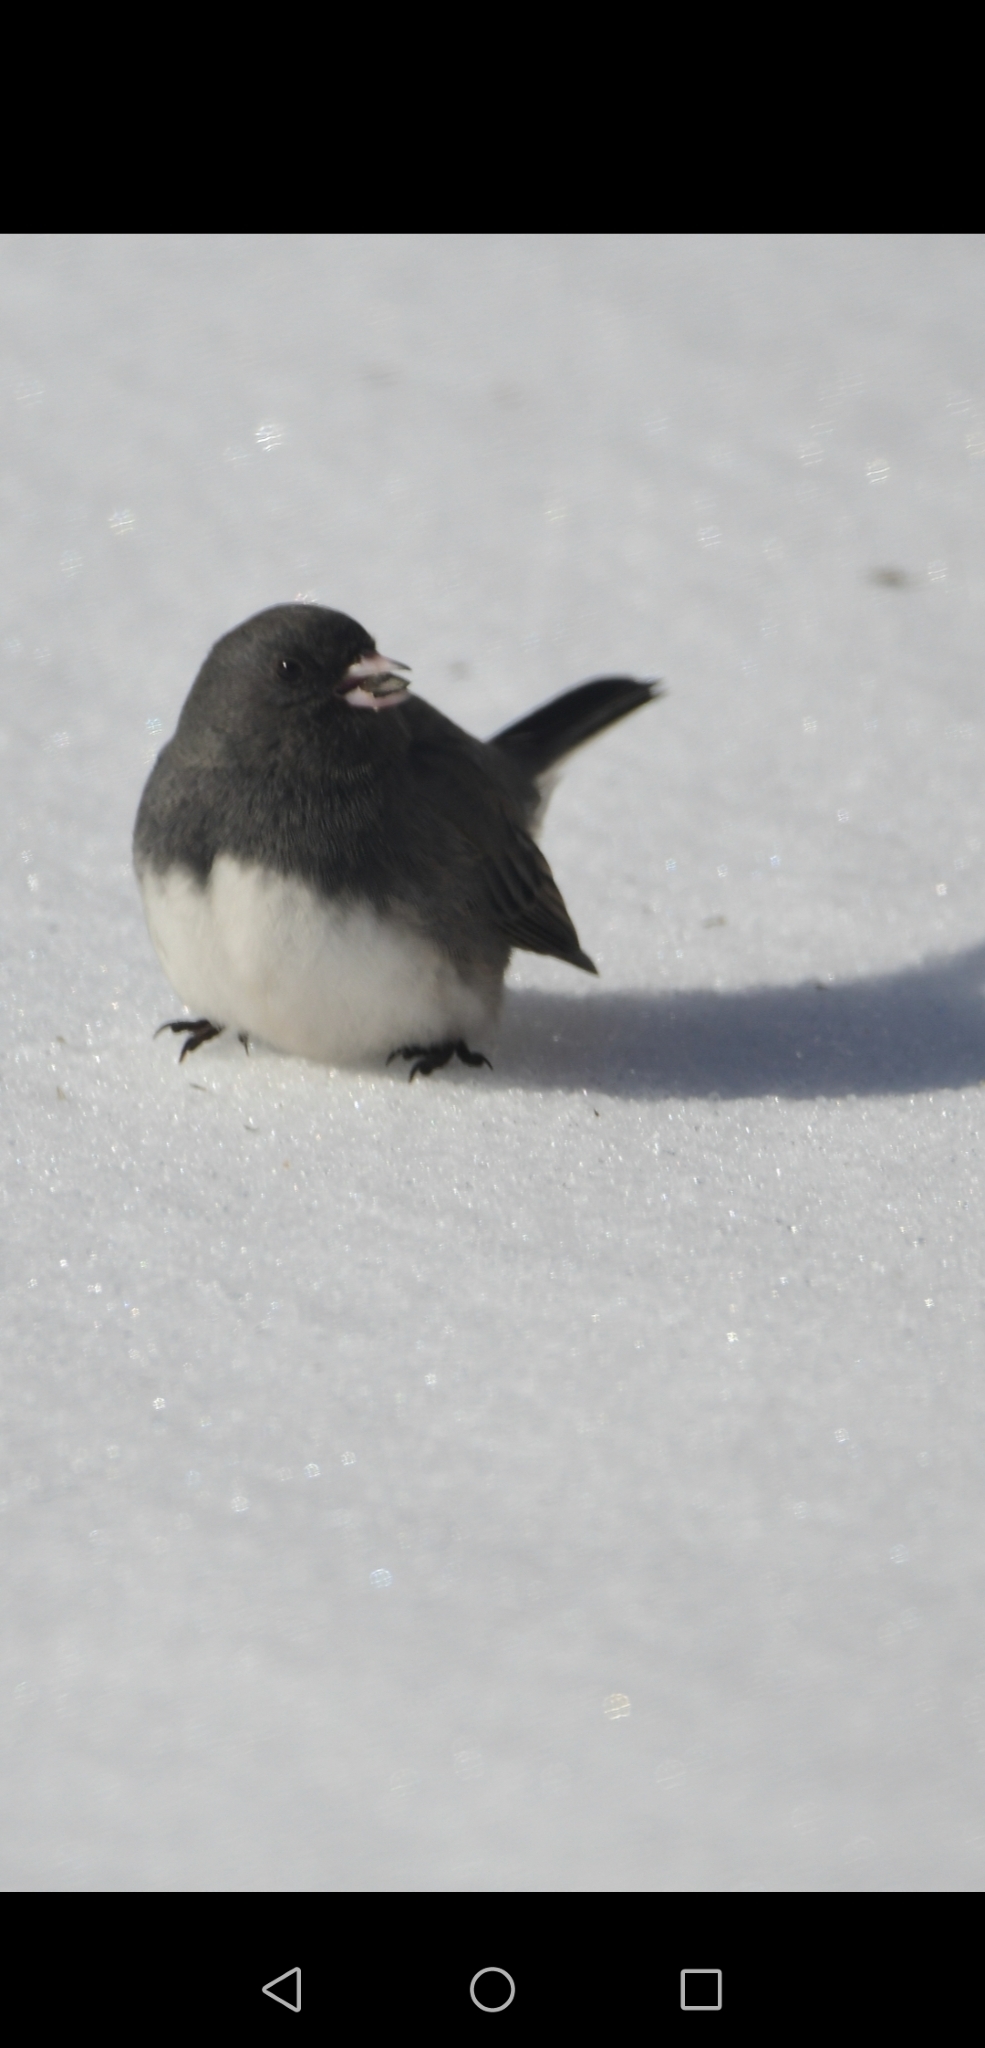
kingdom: Animalia
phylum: Chordata
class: Aves
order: Passeriformes
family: Passerellidae
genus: Junco
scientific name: Junco hyemalis
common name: Dark-eyed junco
